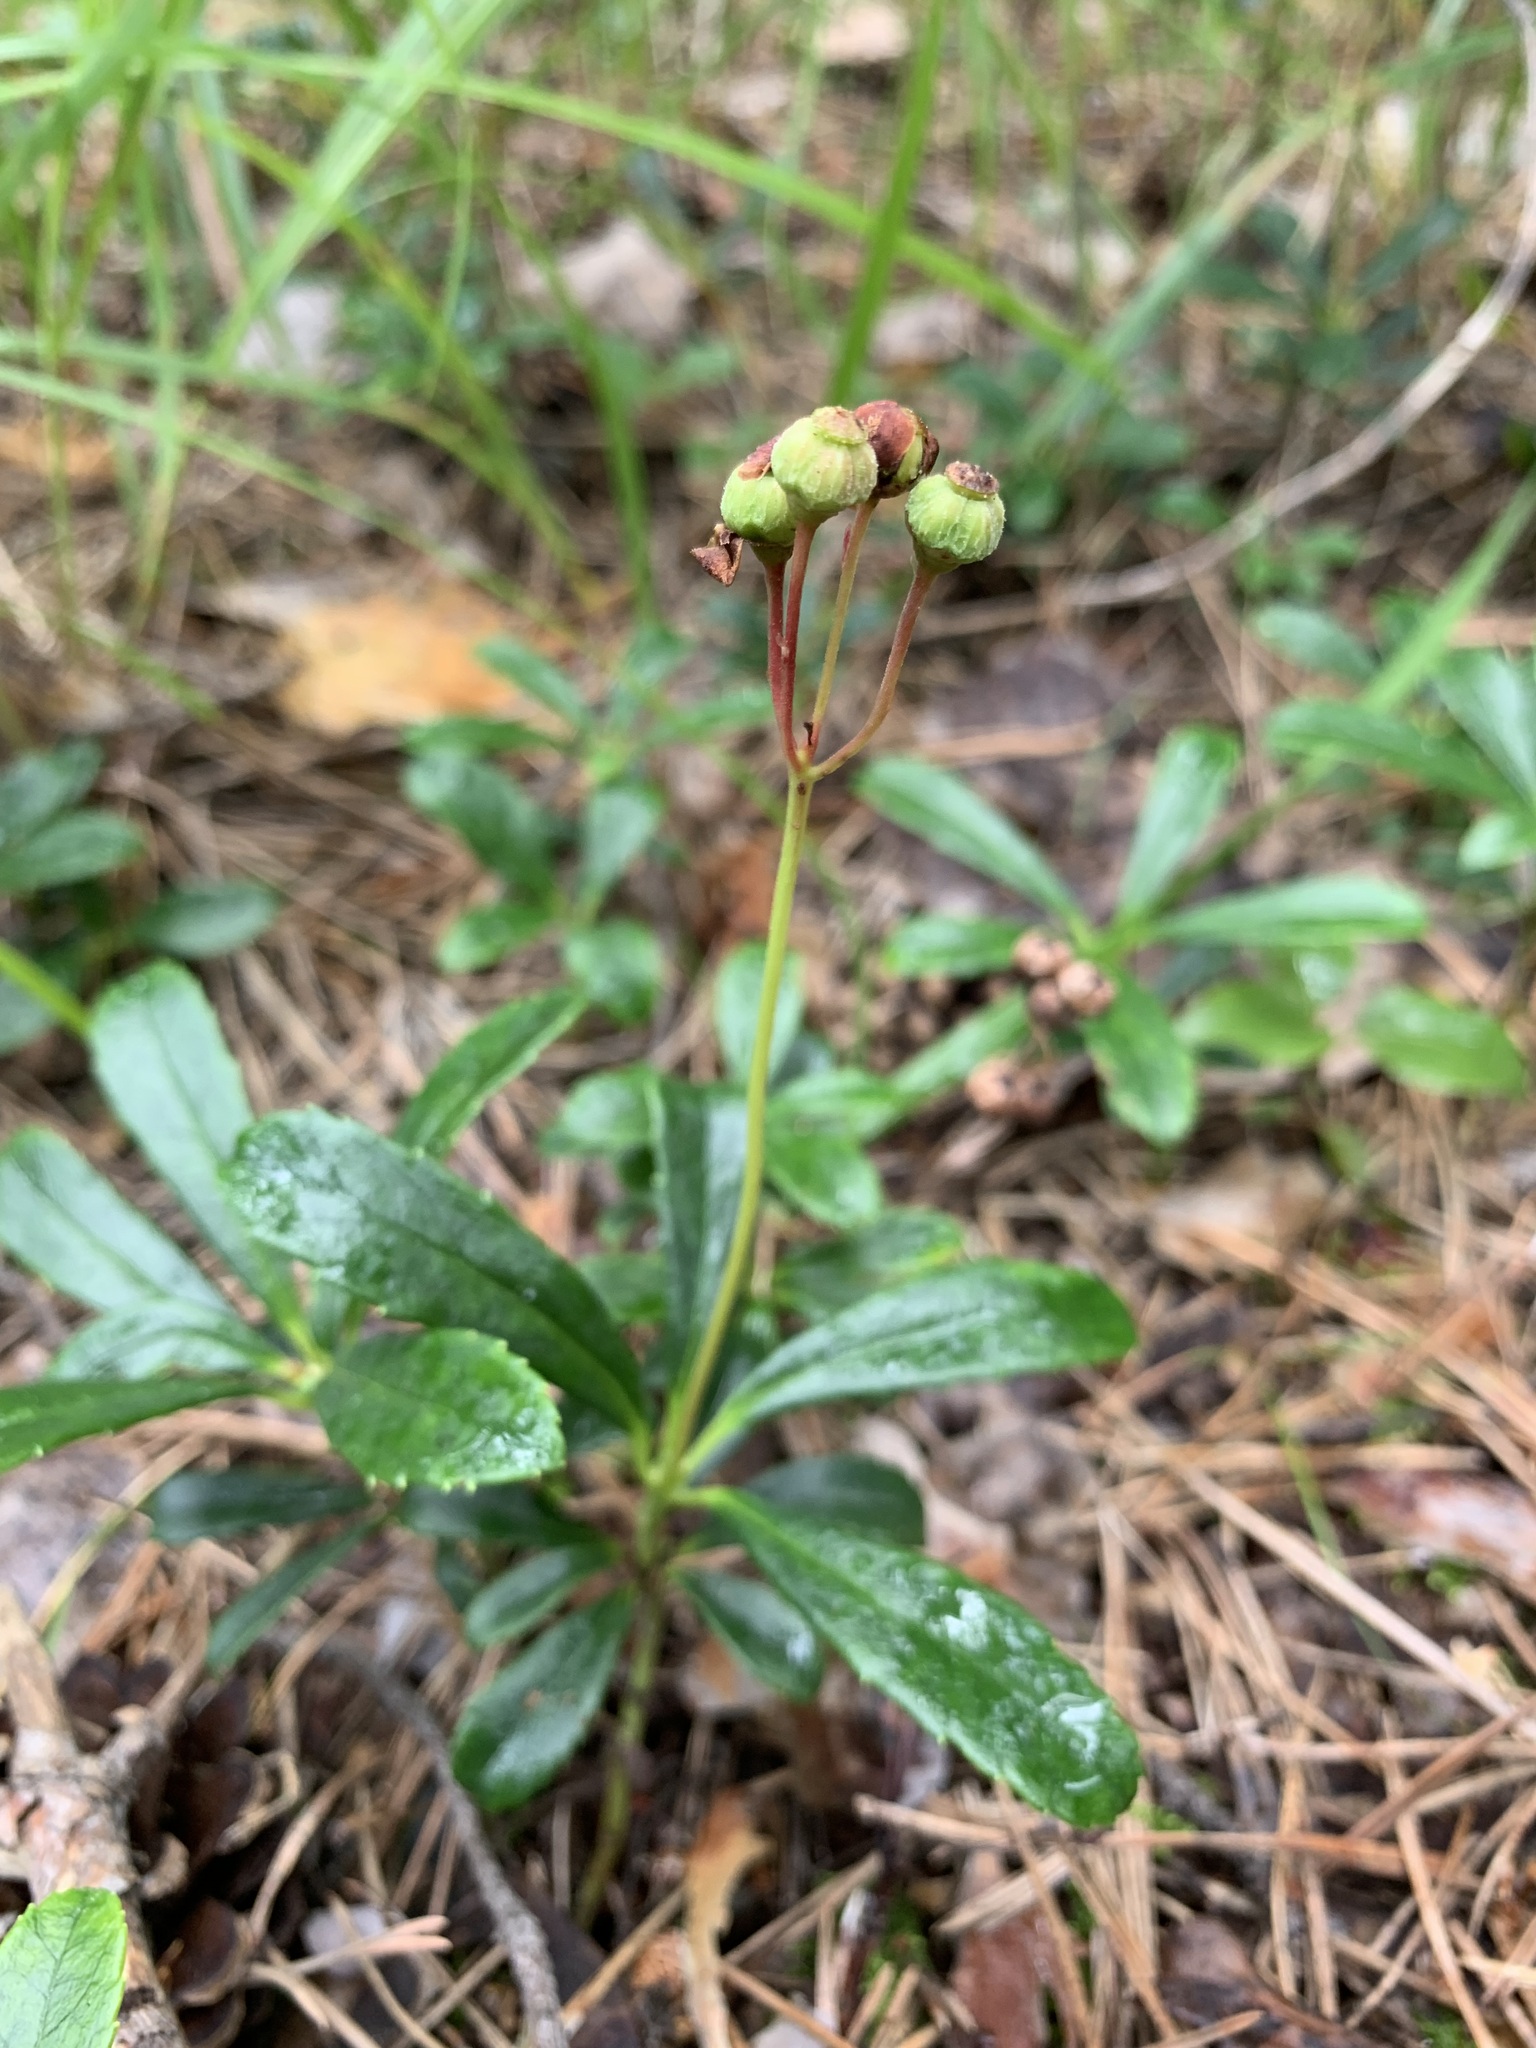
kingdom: Plantae
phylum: Tracheophyta
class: Magnoliopsida
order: Ericales
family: Ericaceae
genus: Chimaphila
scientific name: Chimaphila umbellata
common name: Pipsissewa
